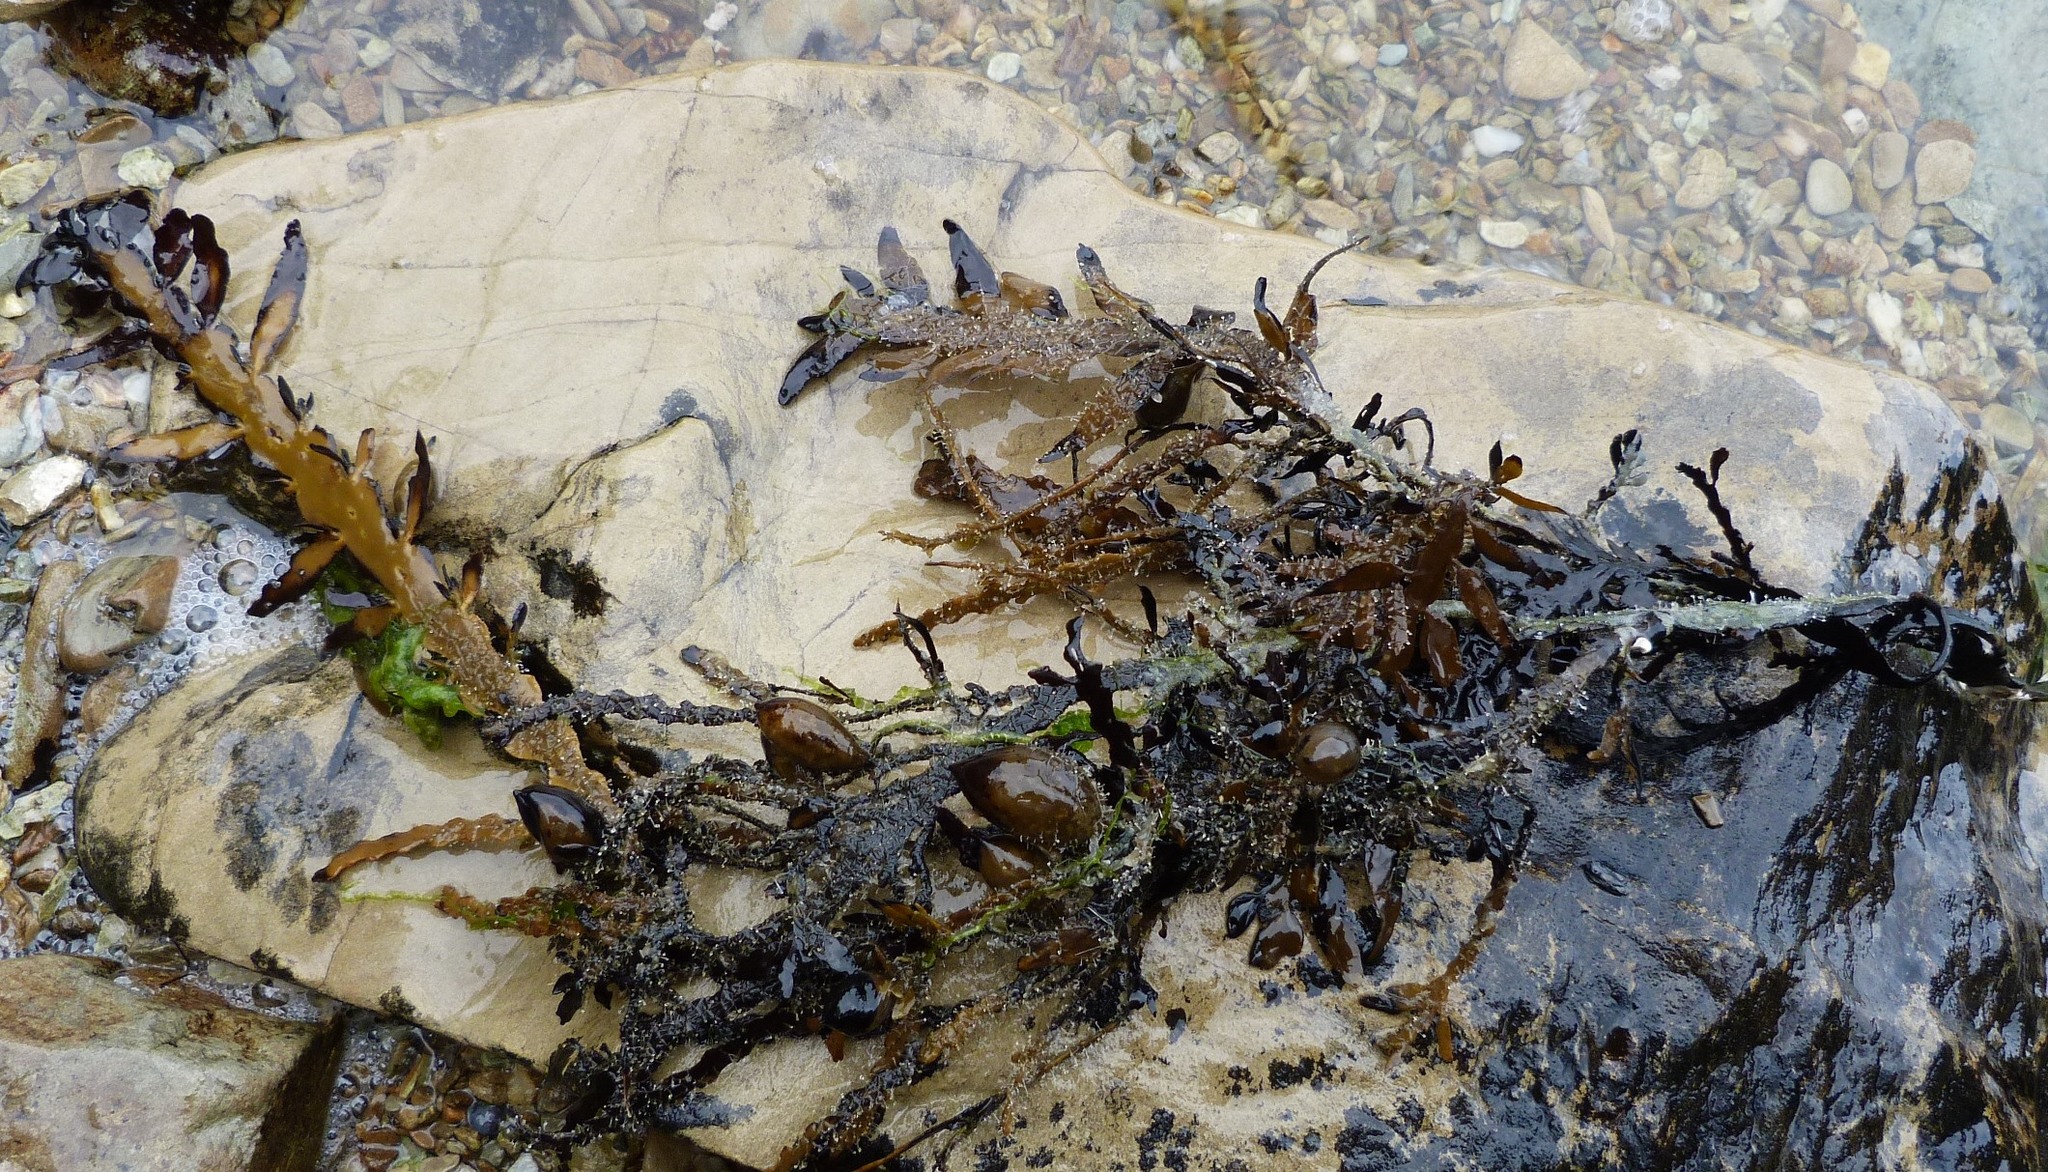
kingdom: Chromista
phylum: Ochrophyta
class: Phaeophyceae
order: Fucales
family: Sargassaceae
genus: Carpophyllum
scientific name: Carpophyllum maschalocarpum
